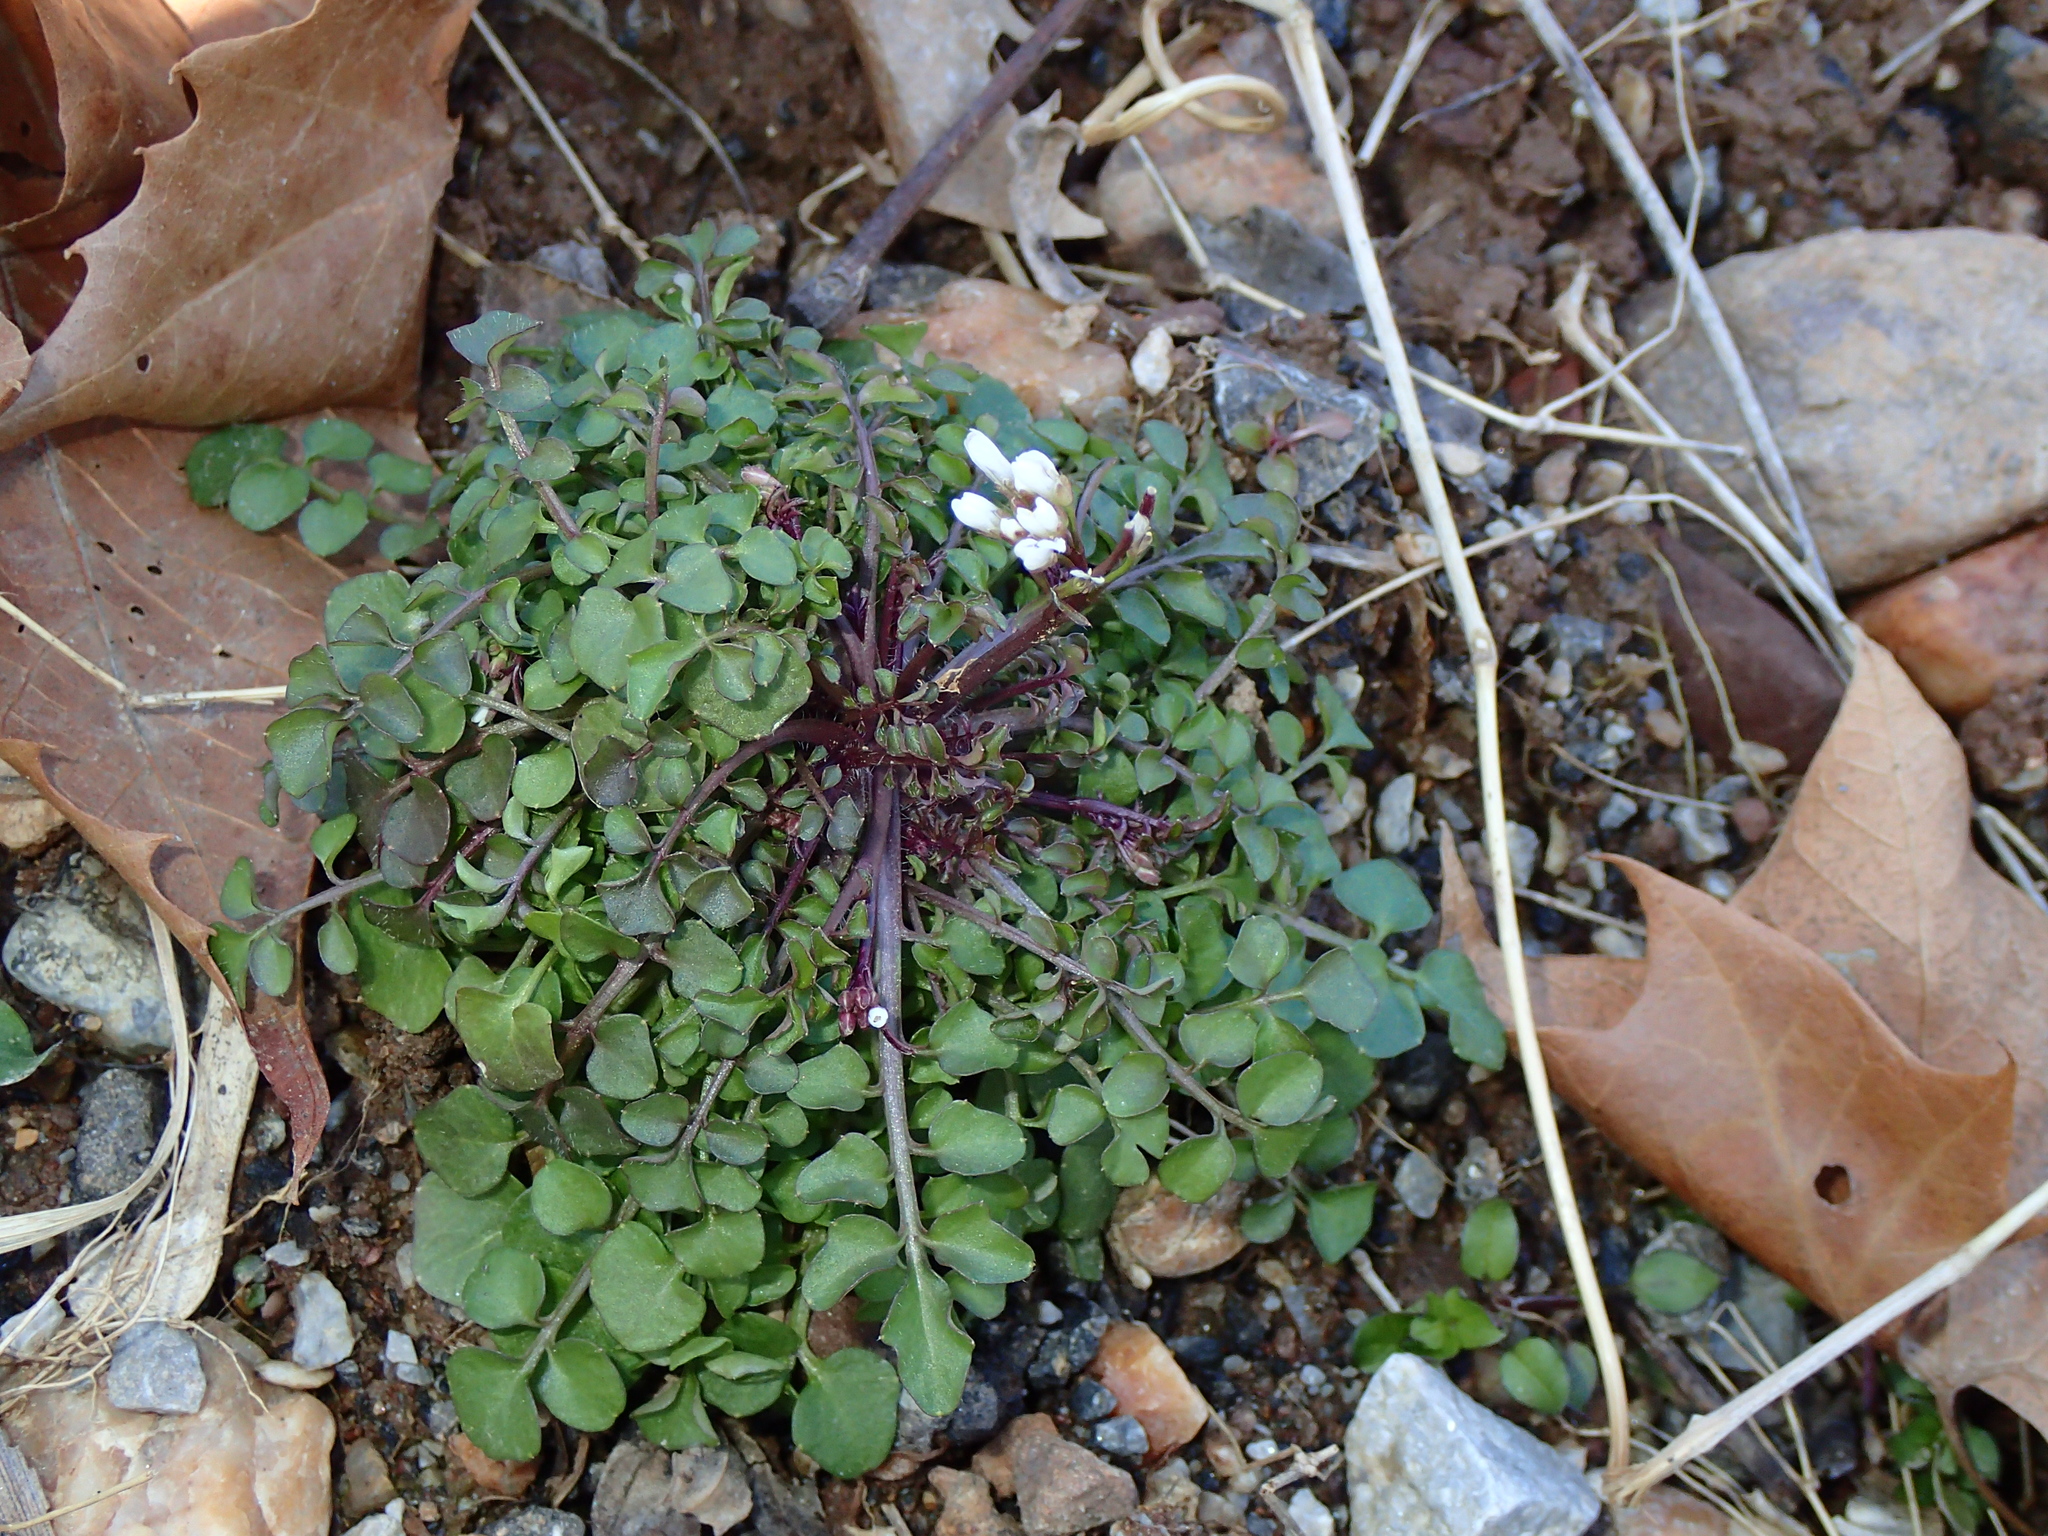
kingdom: Plantae
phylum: Tracheophyta
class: Magnoliopsida
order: Brassicales
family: Brassicaceae
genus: Cardamine
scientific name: Cardamine hirsuta
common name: Hairy bittercress
